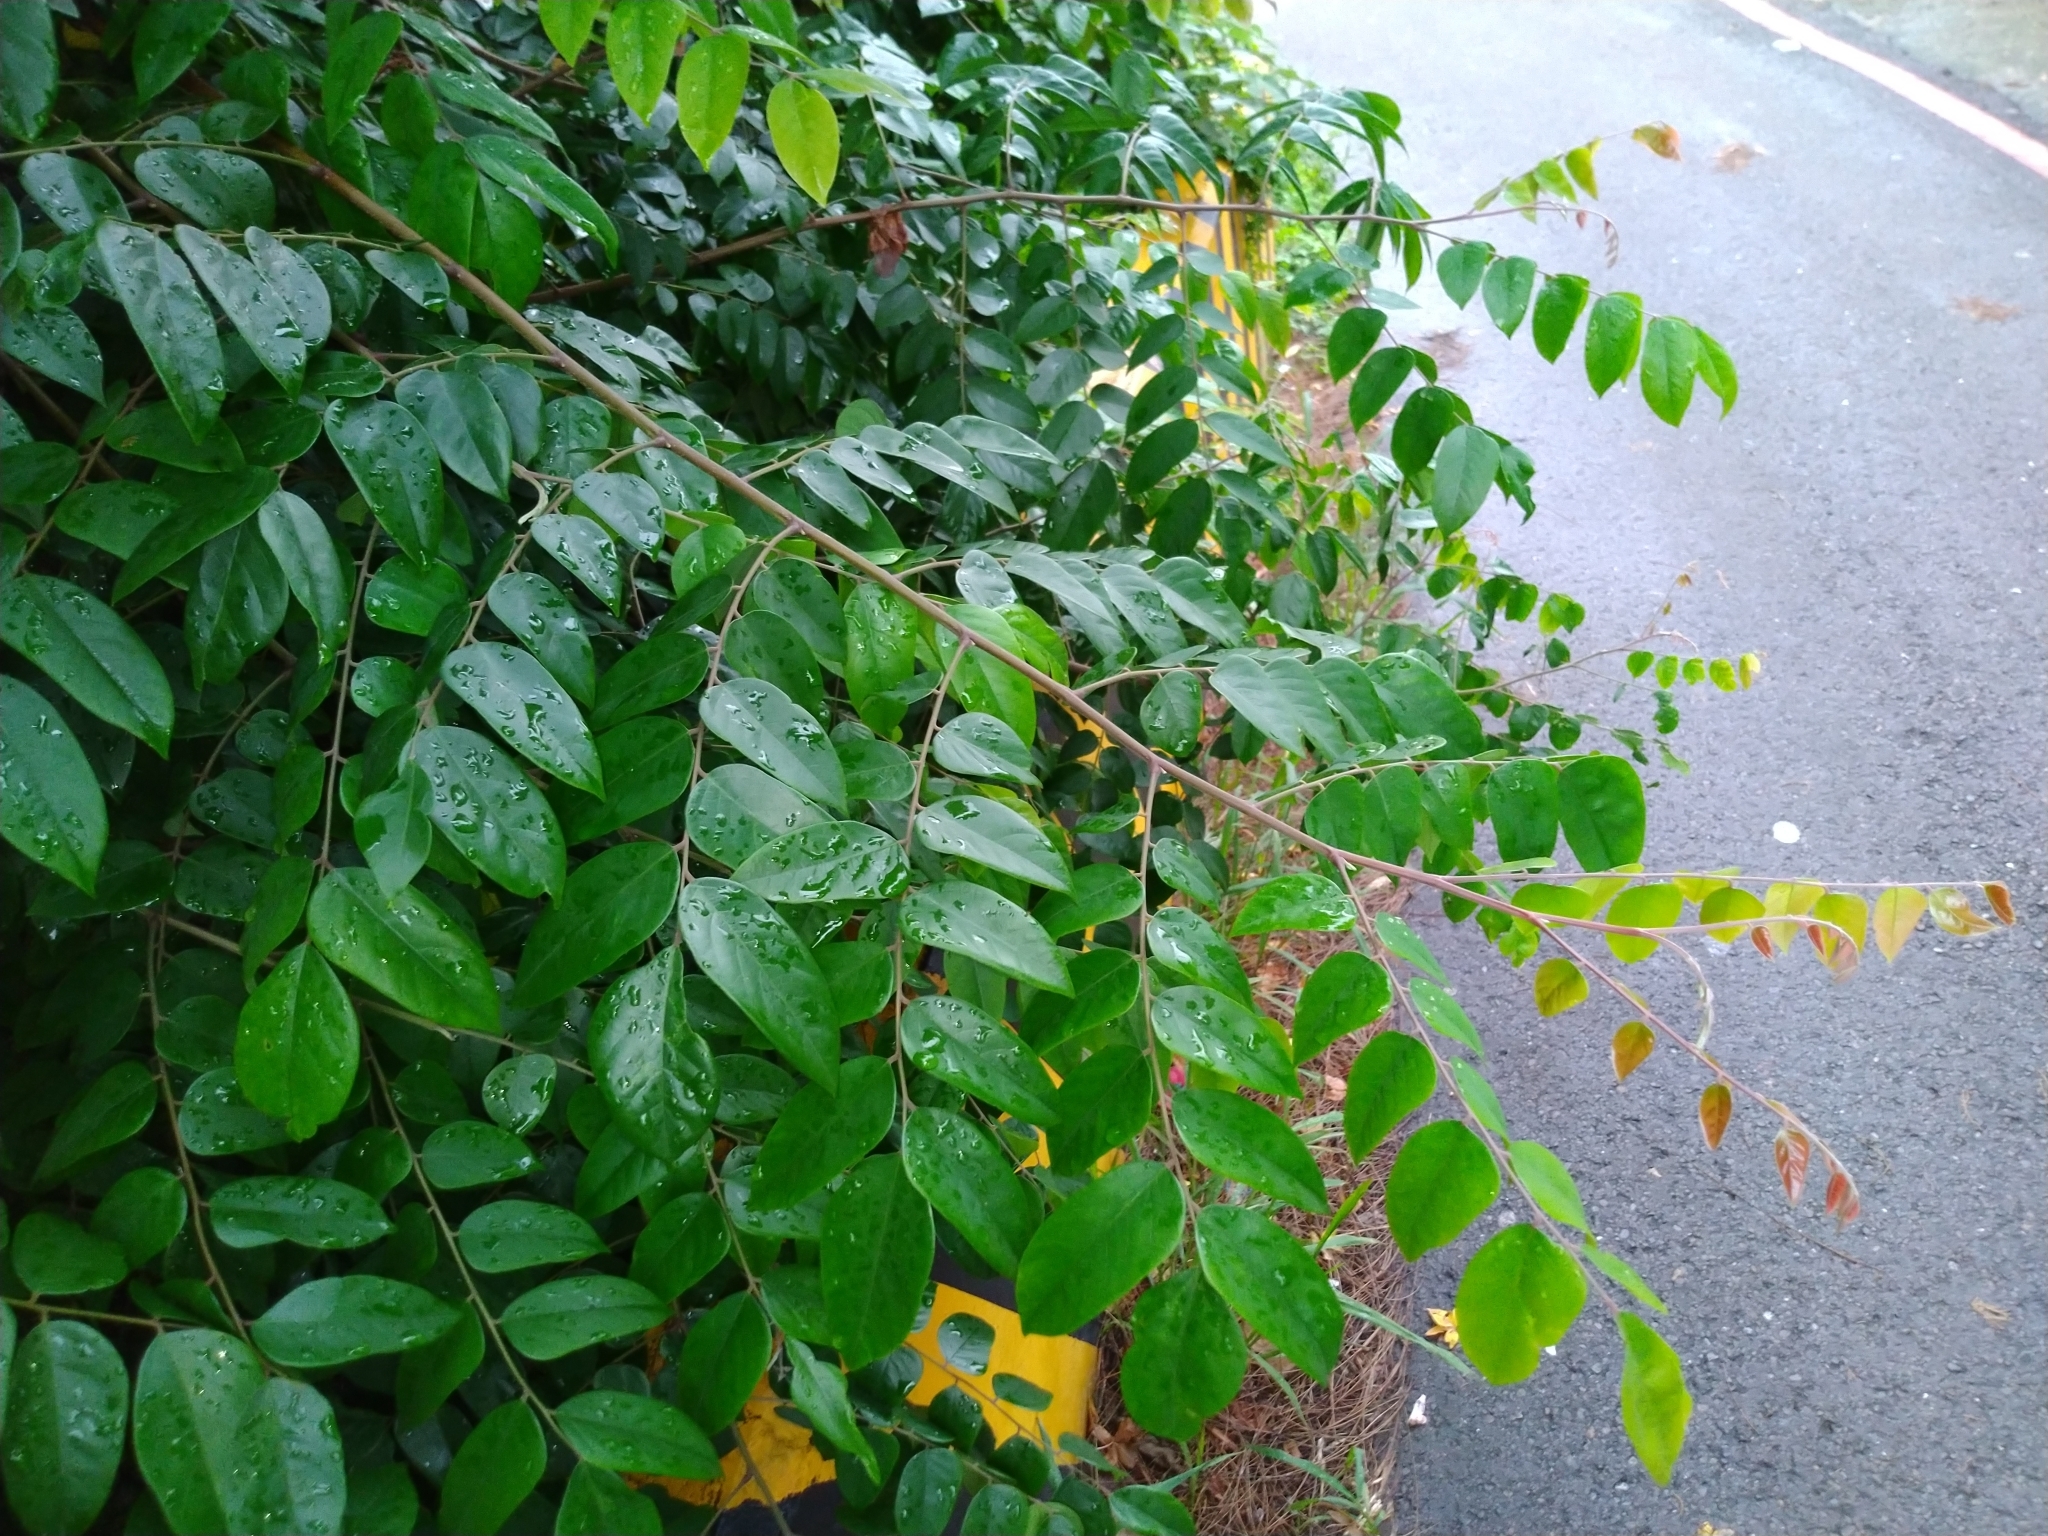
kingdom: Plantae
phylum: Tracheophyta
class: Magnoliopsida
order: Oxalidales
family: Oxalidaceae
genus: Averrhoa
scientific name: Averrhoa carambola
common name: Blimbing
